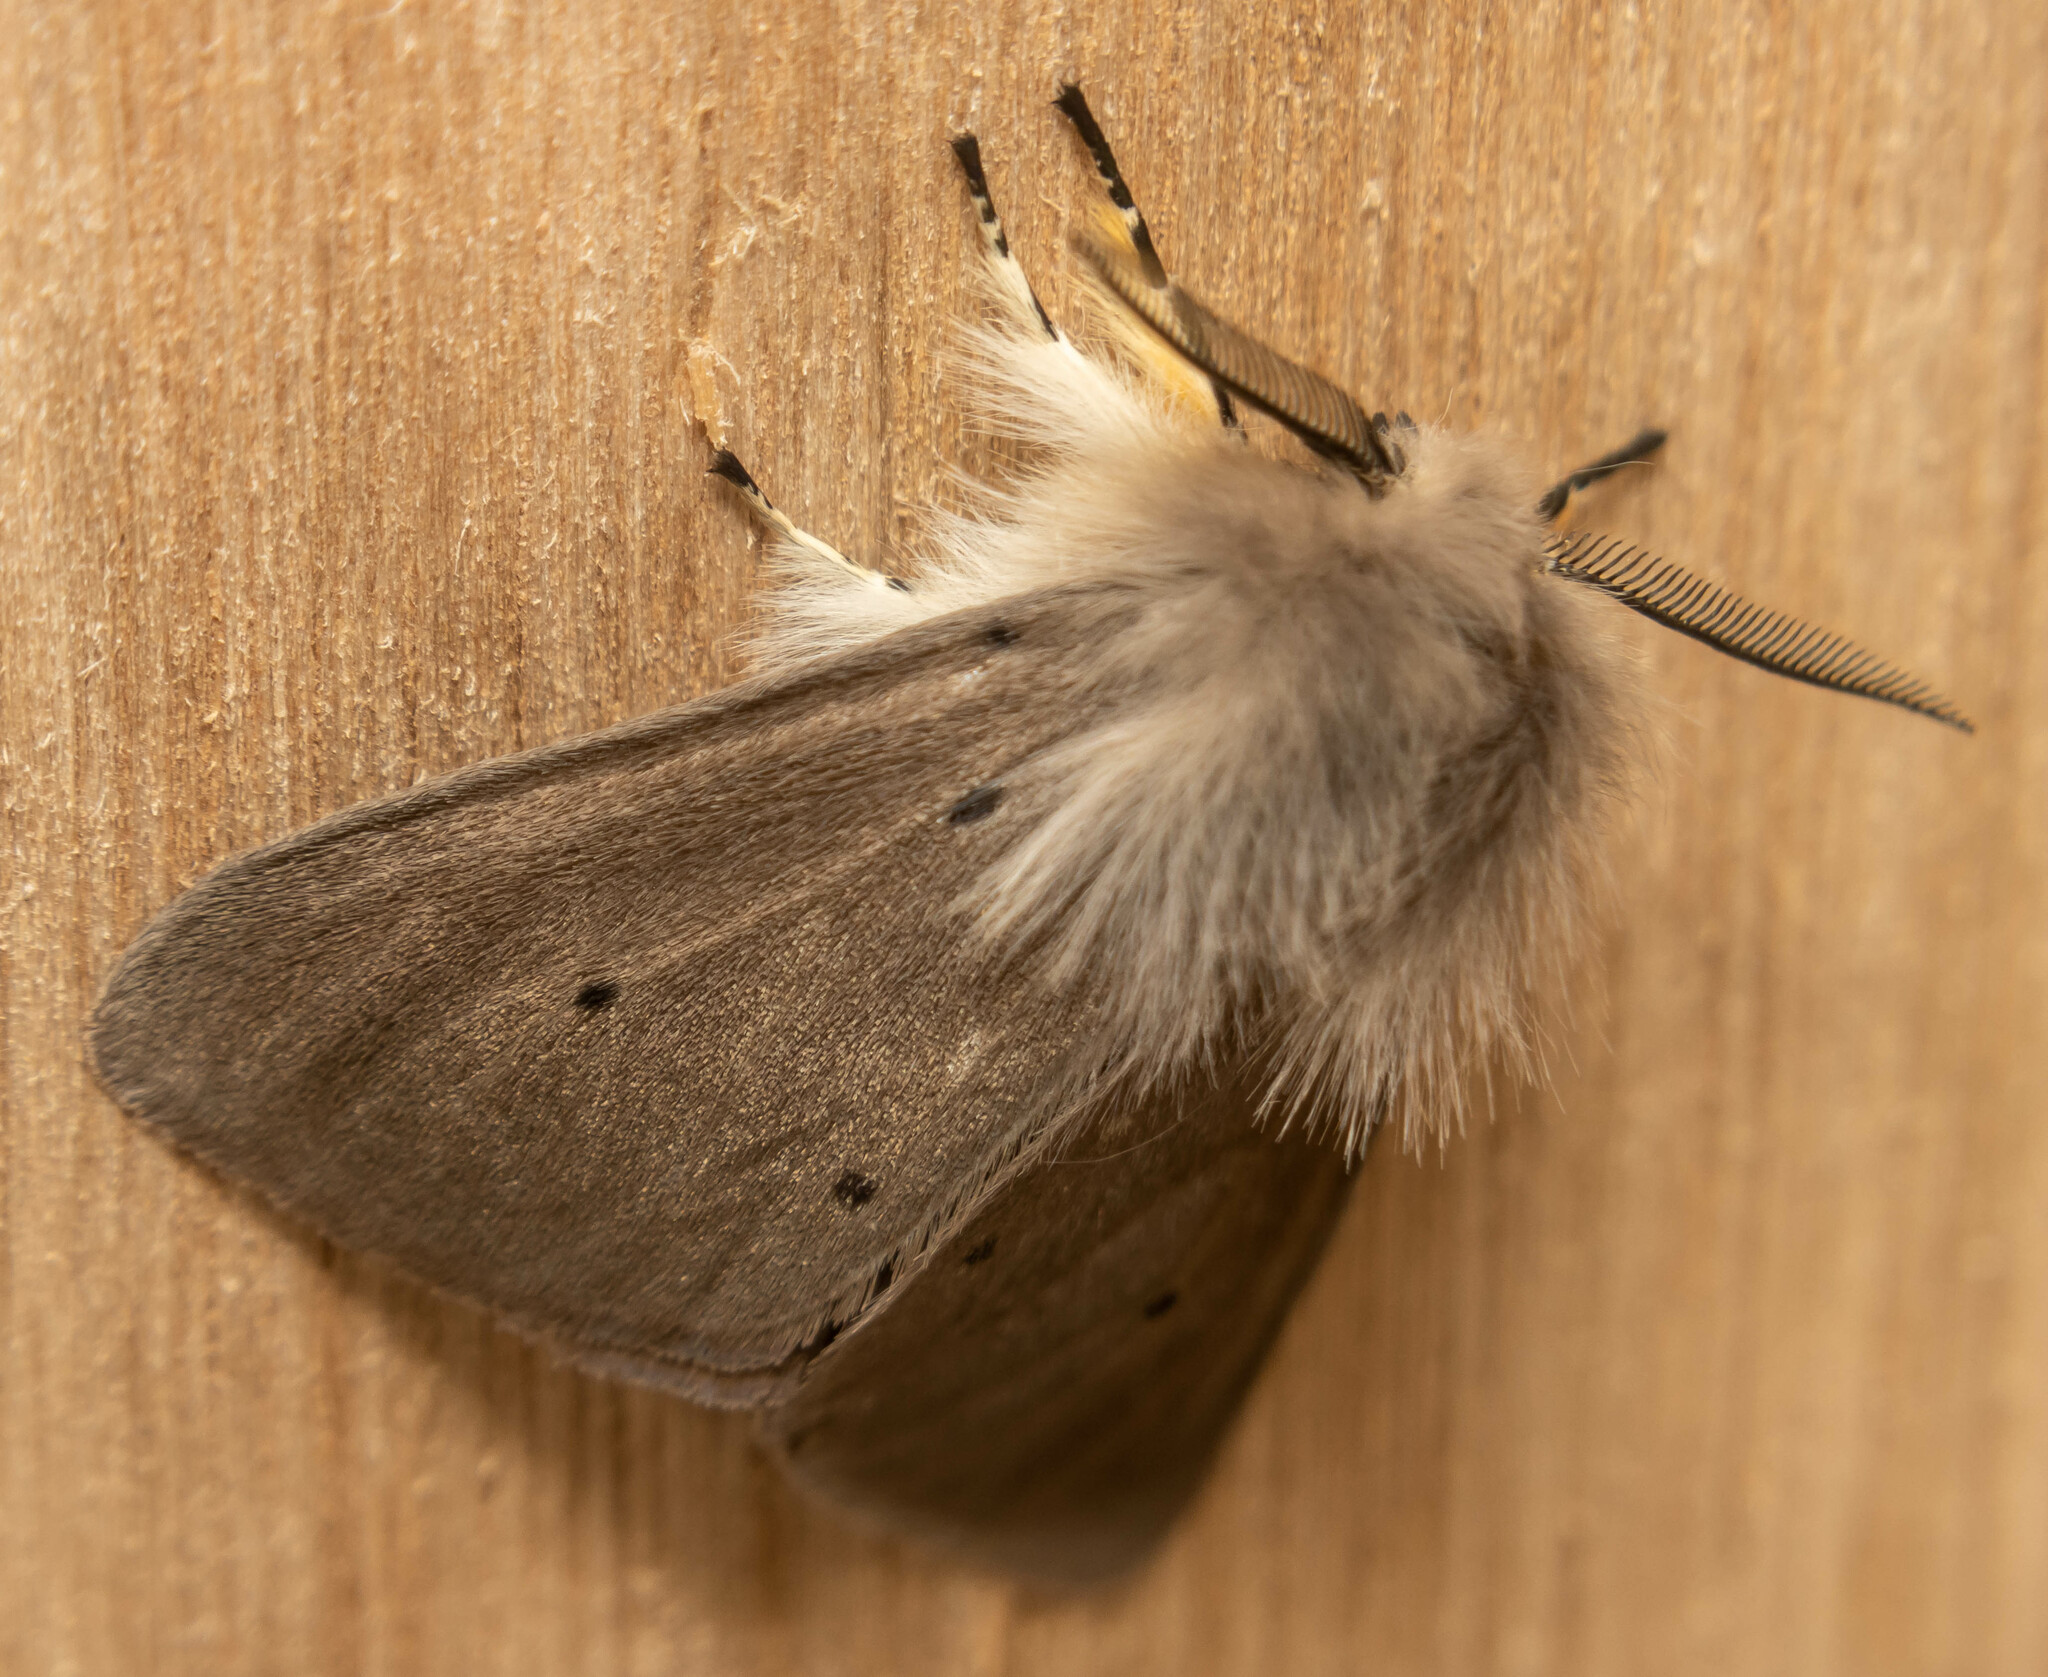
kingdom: Animalia
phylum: Arthropoda
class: Insecta
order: Lepidoptera
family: Erebidae
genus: Diaphora
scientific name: Diaphora mendica
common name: Muslin moth
